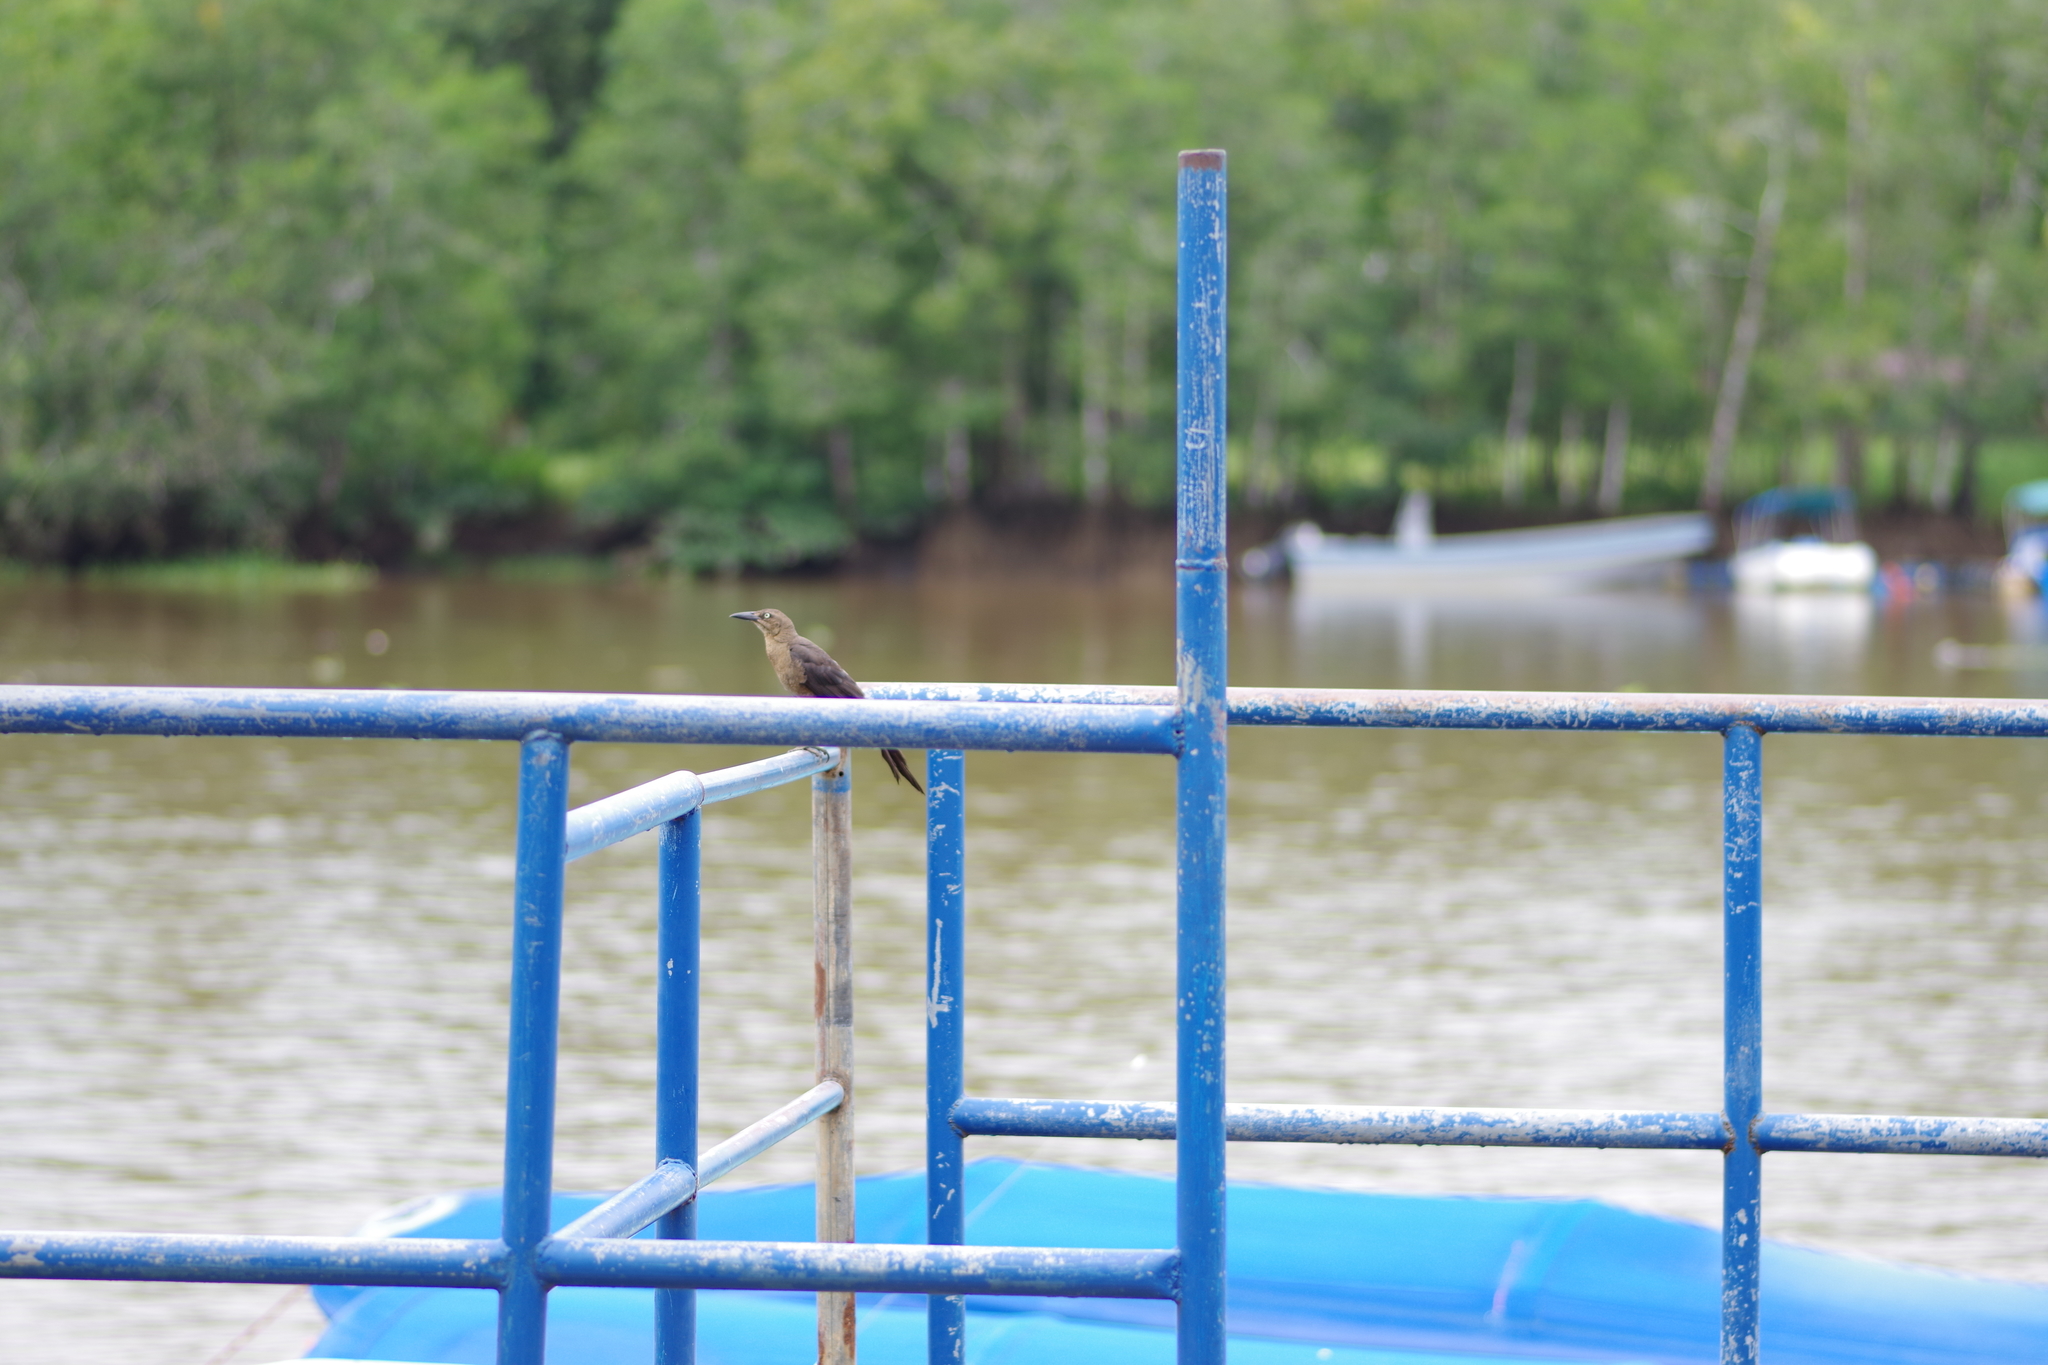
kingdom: Animalia
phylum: Chordata
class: Aves
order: Passeriformes
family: Icteridae
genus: Quiscalus
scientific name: Quiscalus mexicanus
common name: Great-tailed grackle
